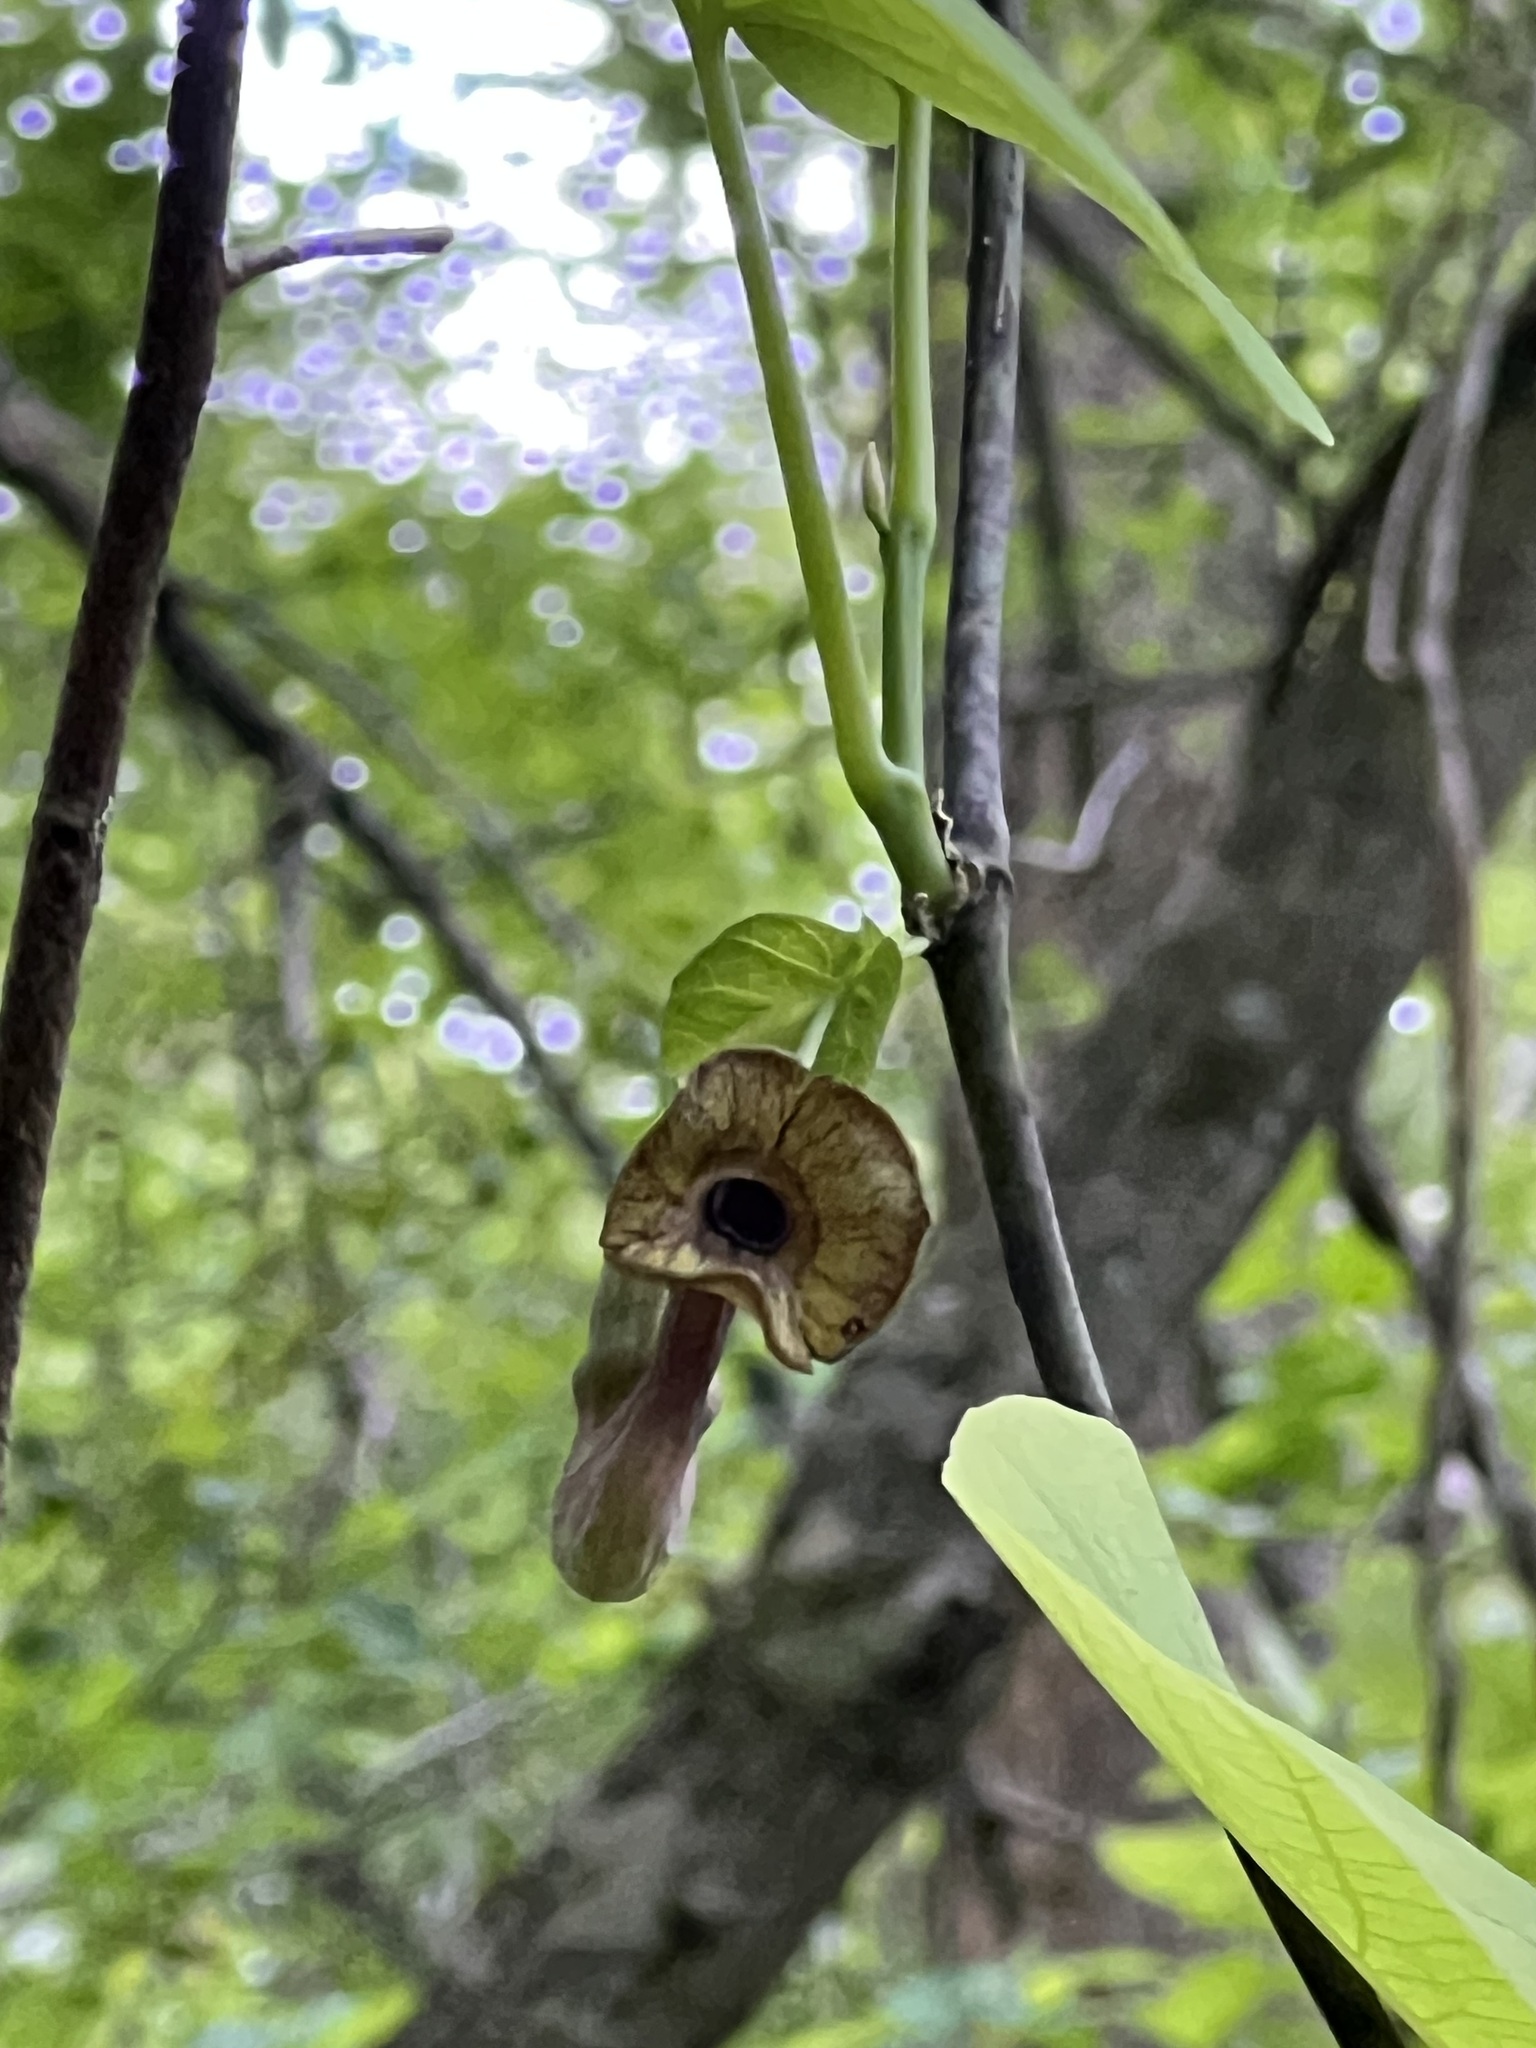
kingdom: Plantae
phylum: Tracheophyta
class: Magnoliopsida
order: Piperales
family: Aristolochiaceae
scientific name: Aristolochiaceae
